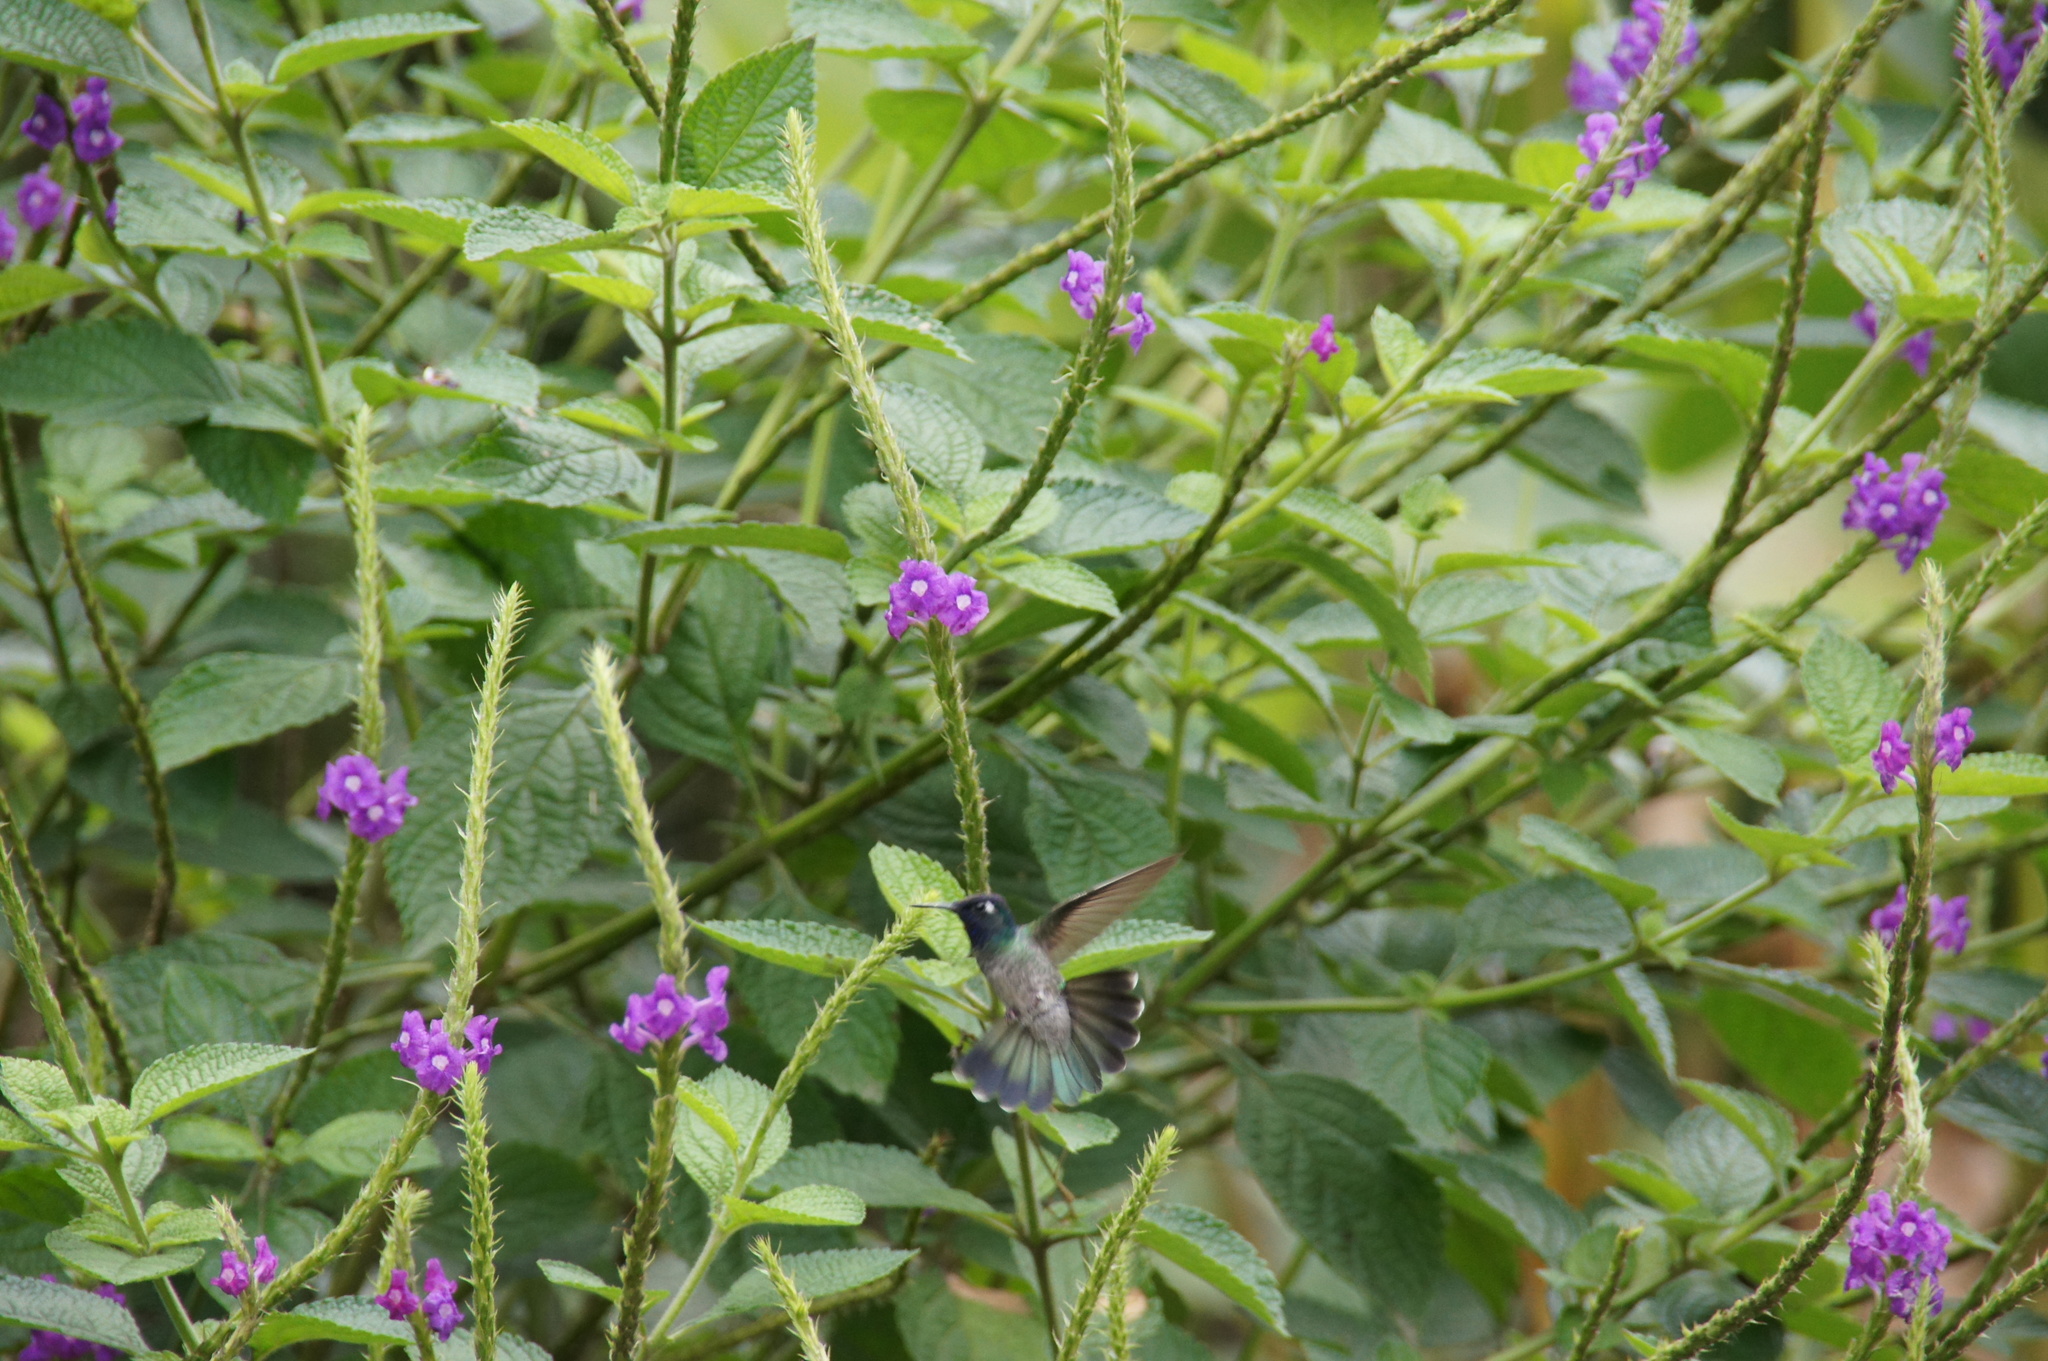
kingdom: Animalia
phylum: Chordata
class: Aves
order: Apodiformes
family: Trochilidae
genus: Klais
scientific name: Klais guimeti
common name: Violet-headed hummingbird
